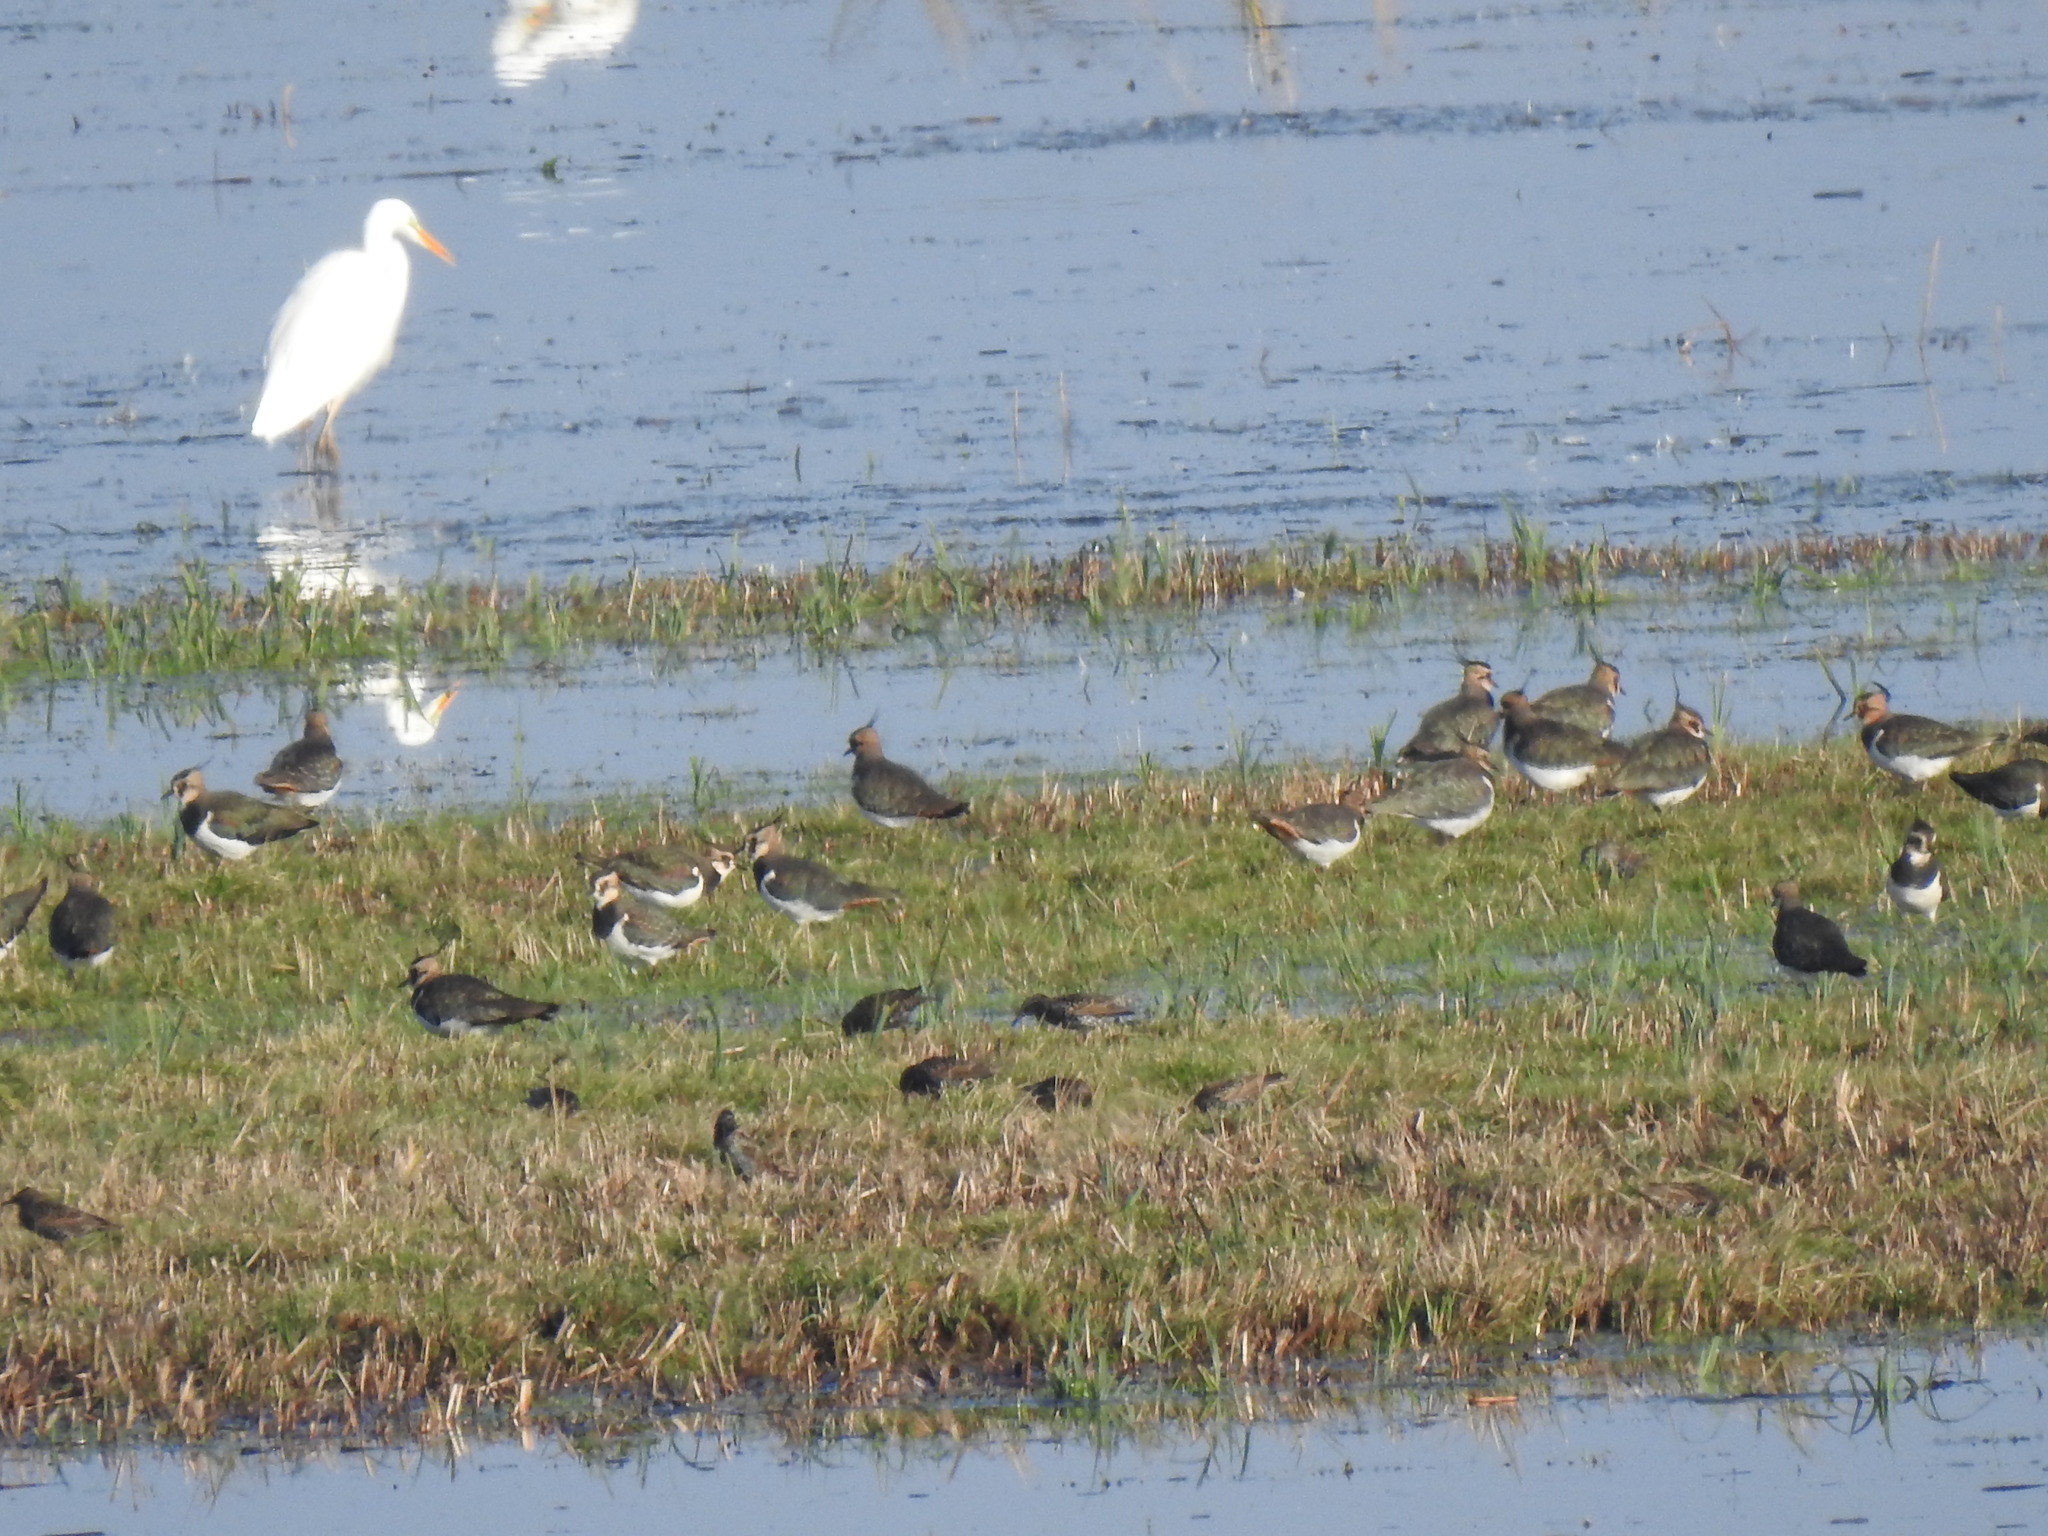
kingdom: Animalia
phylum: Chordata
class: Aves
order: Charadriiformes
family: Charadriidae
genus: Vanellus
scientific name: Vanellus vanellus
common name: Northern lapwing
